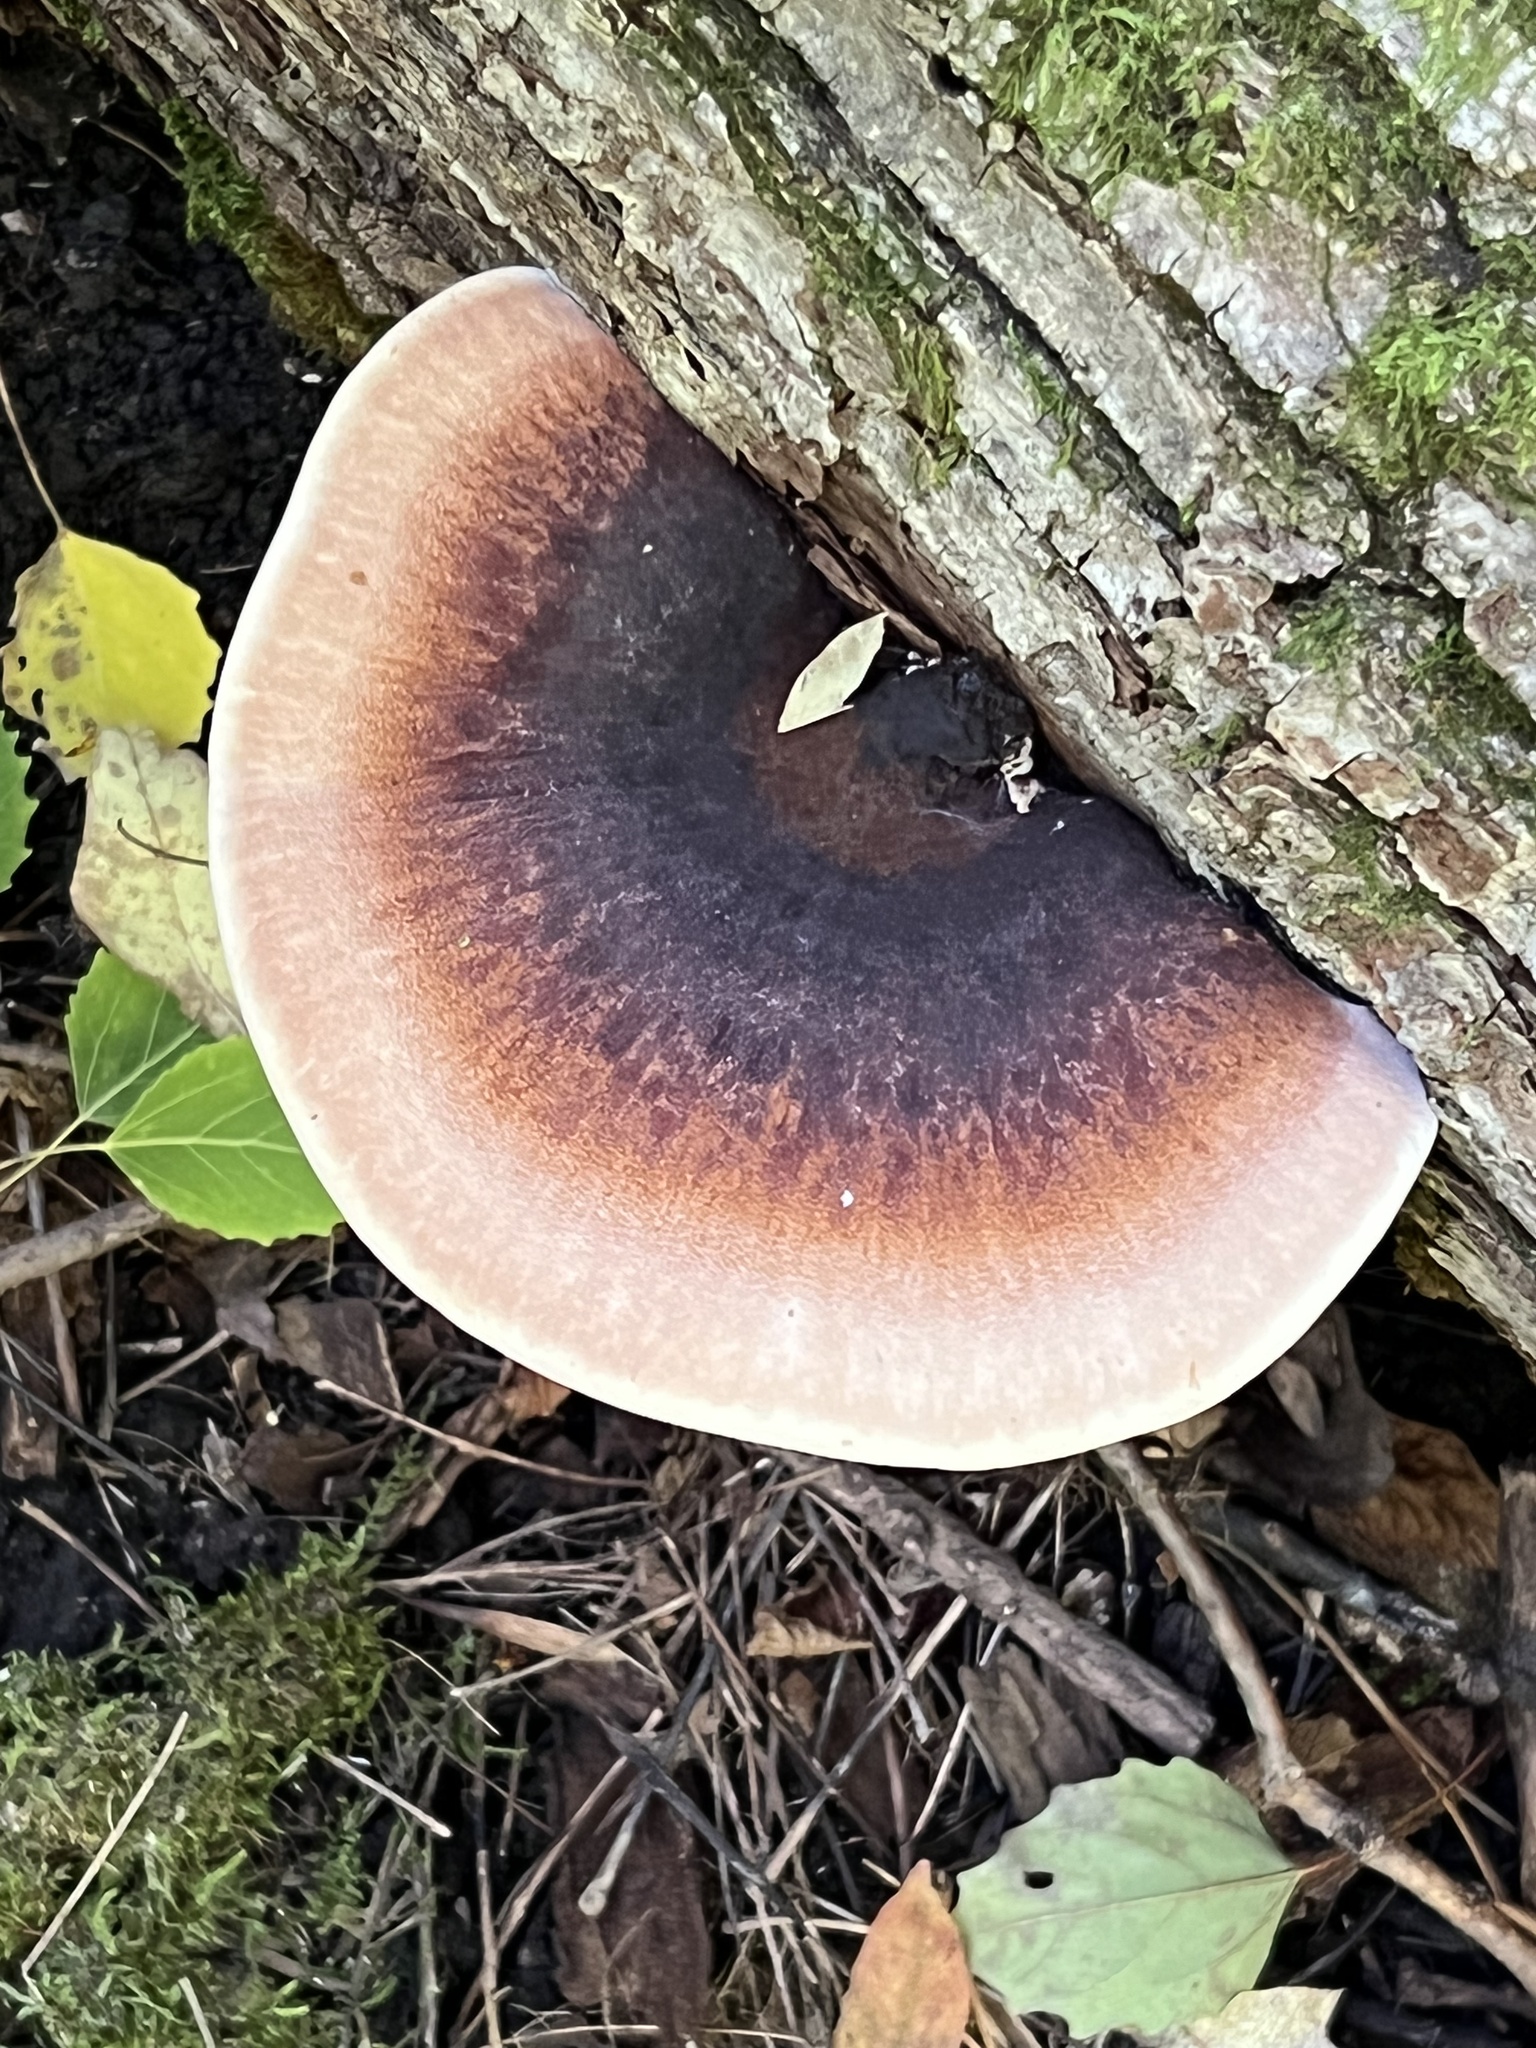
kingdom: Fungi
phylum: Basidiomycota
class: Agaricomycetes
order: Polyporales
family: Ischnodermataceae
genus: Ischnoderma
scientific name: Ischnoderma resinosum
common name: Resinous polypore
